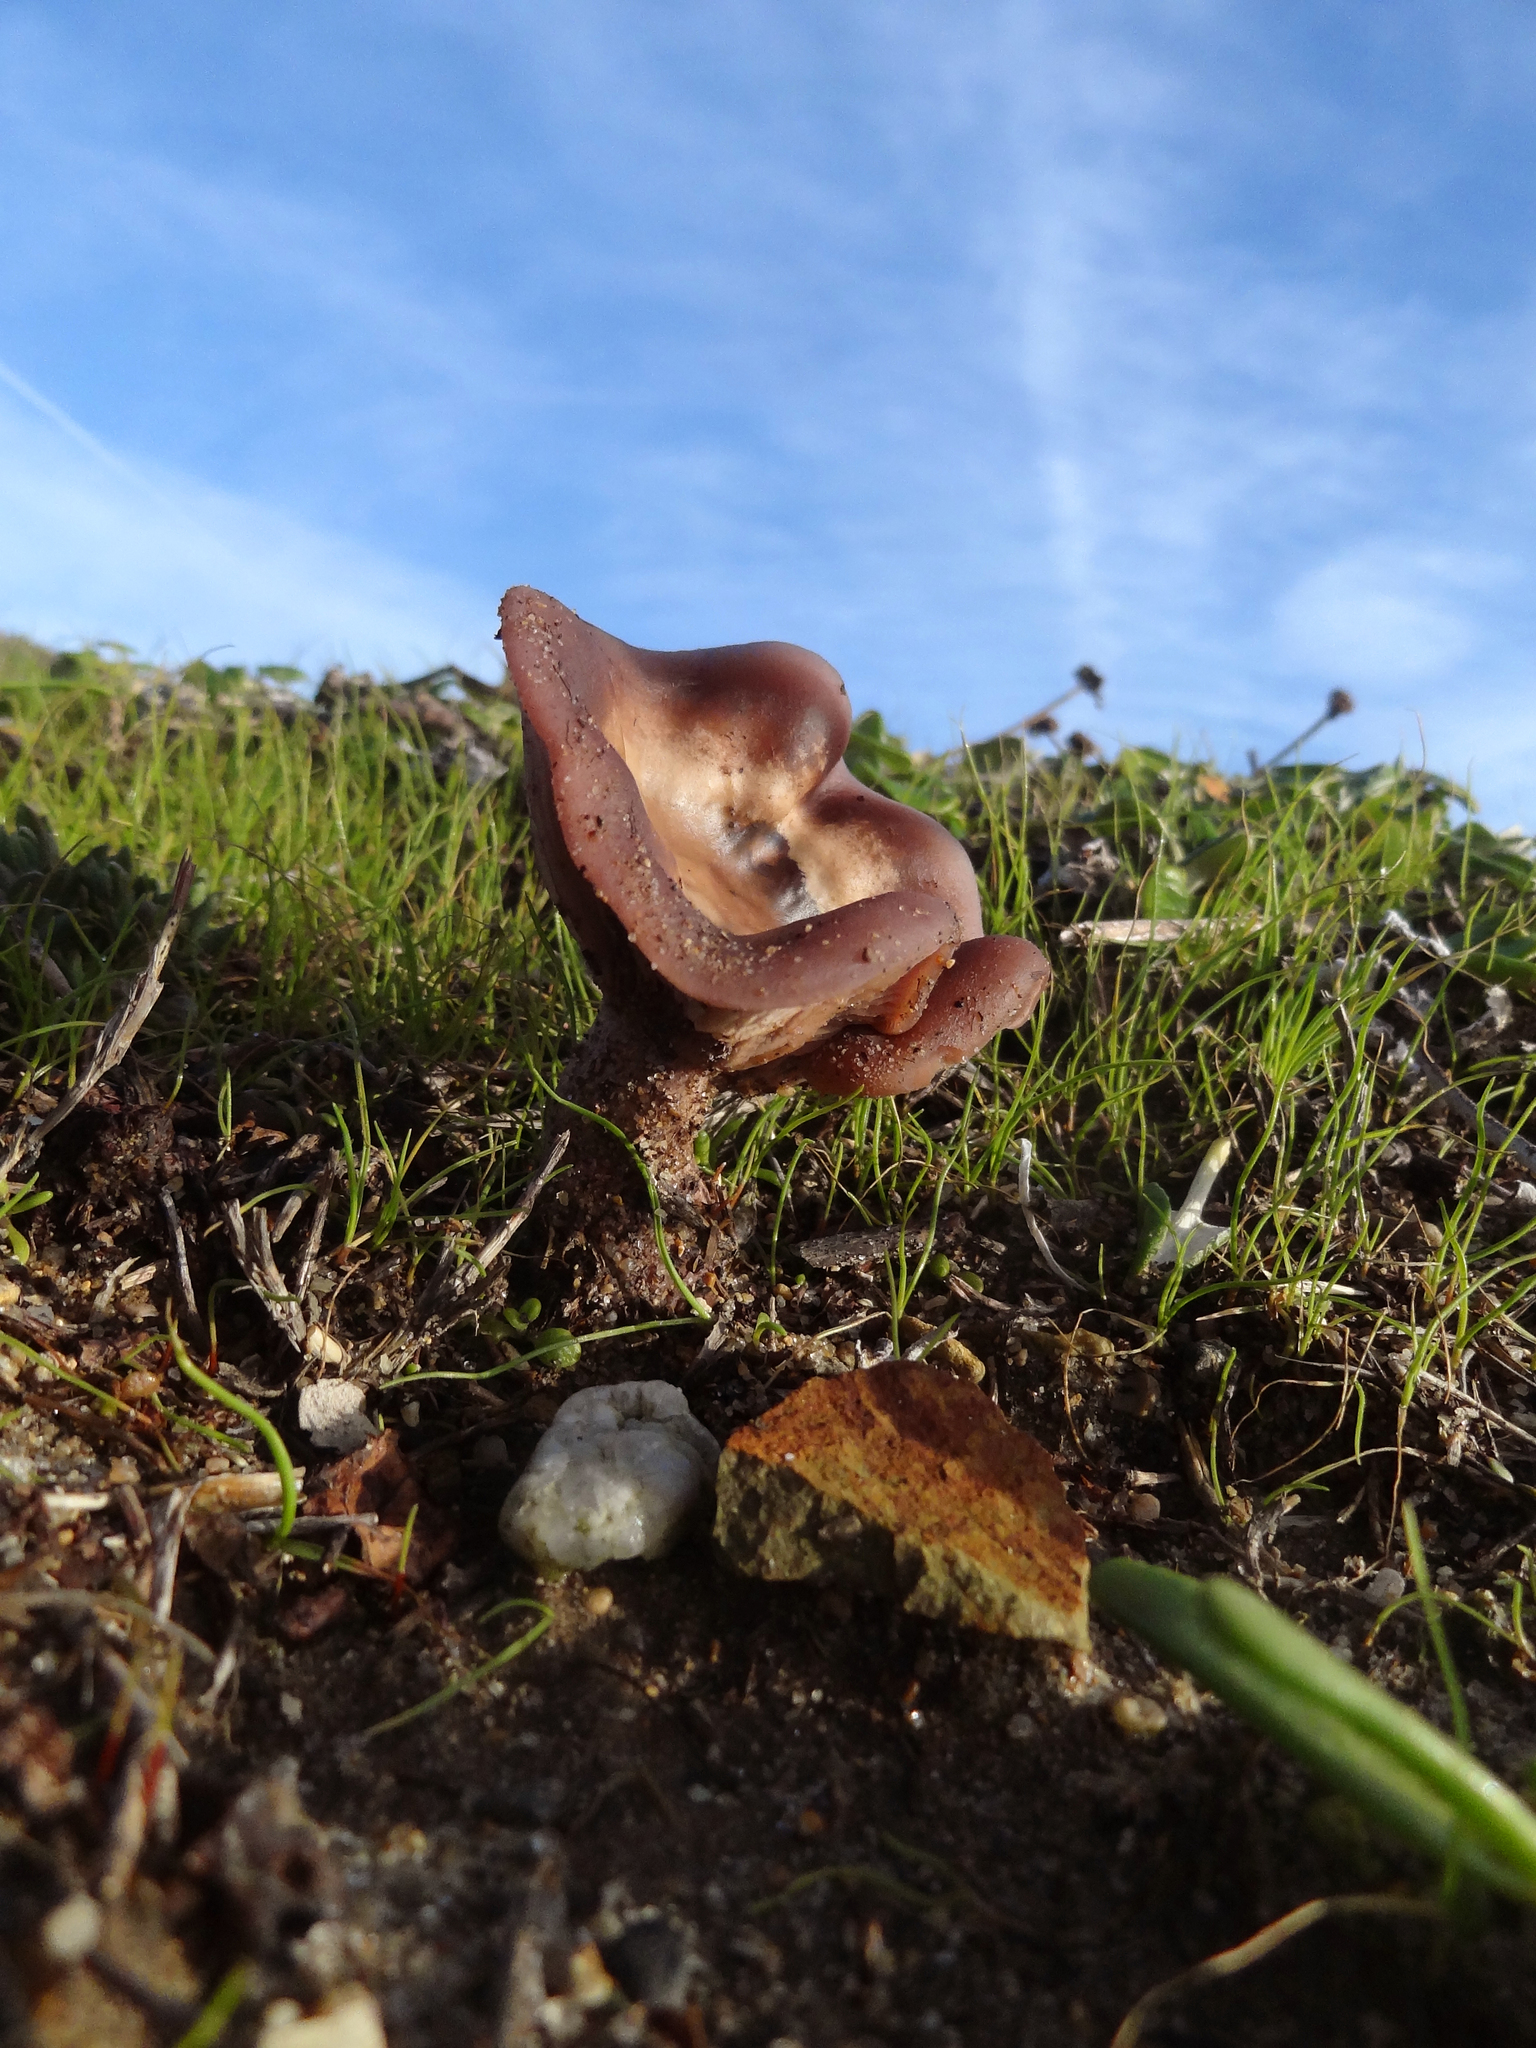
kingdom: Fungi
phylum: Basidiomycota
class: Agaricomycetes
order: Agaricales
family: Tricholomataceae
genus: Collybia
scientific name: Collybia
